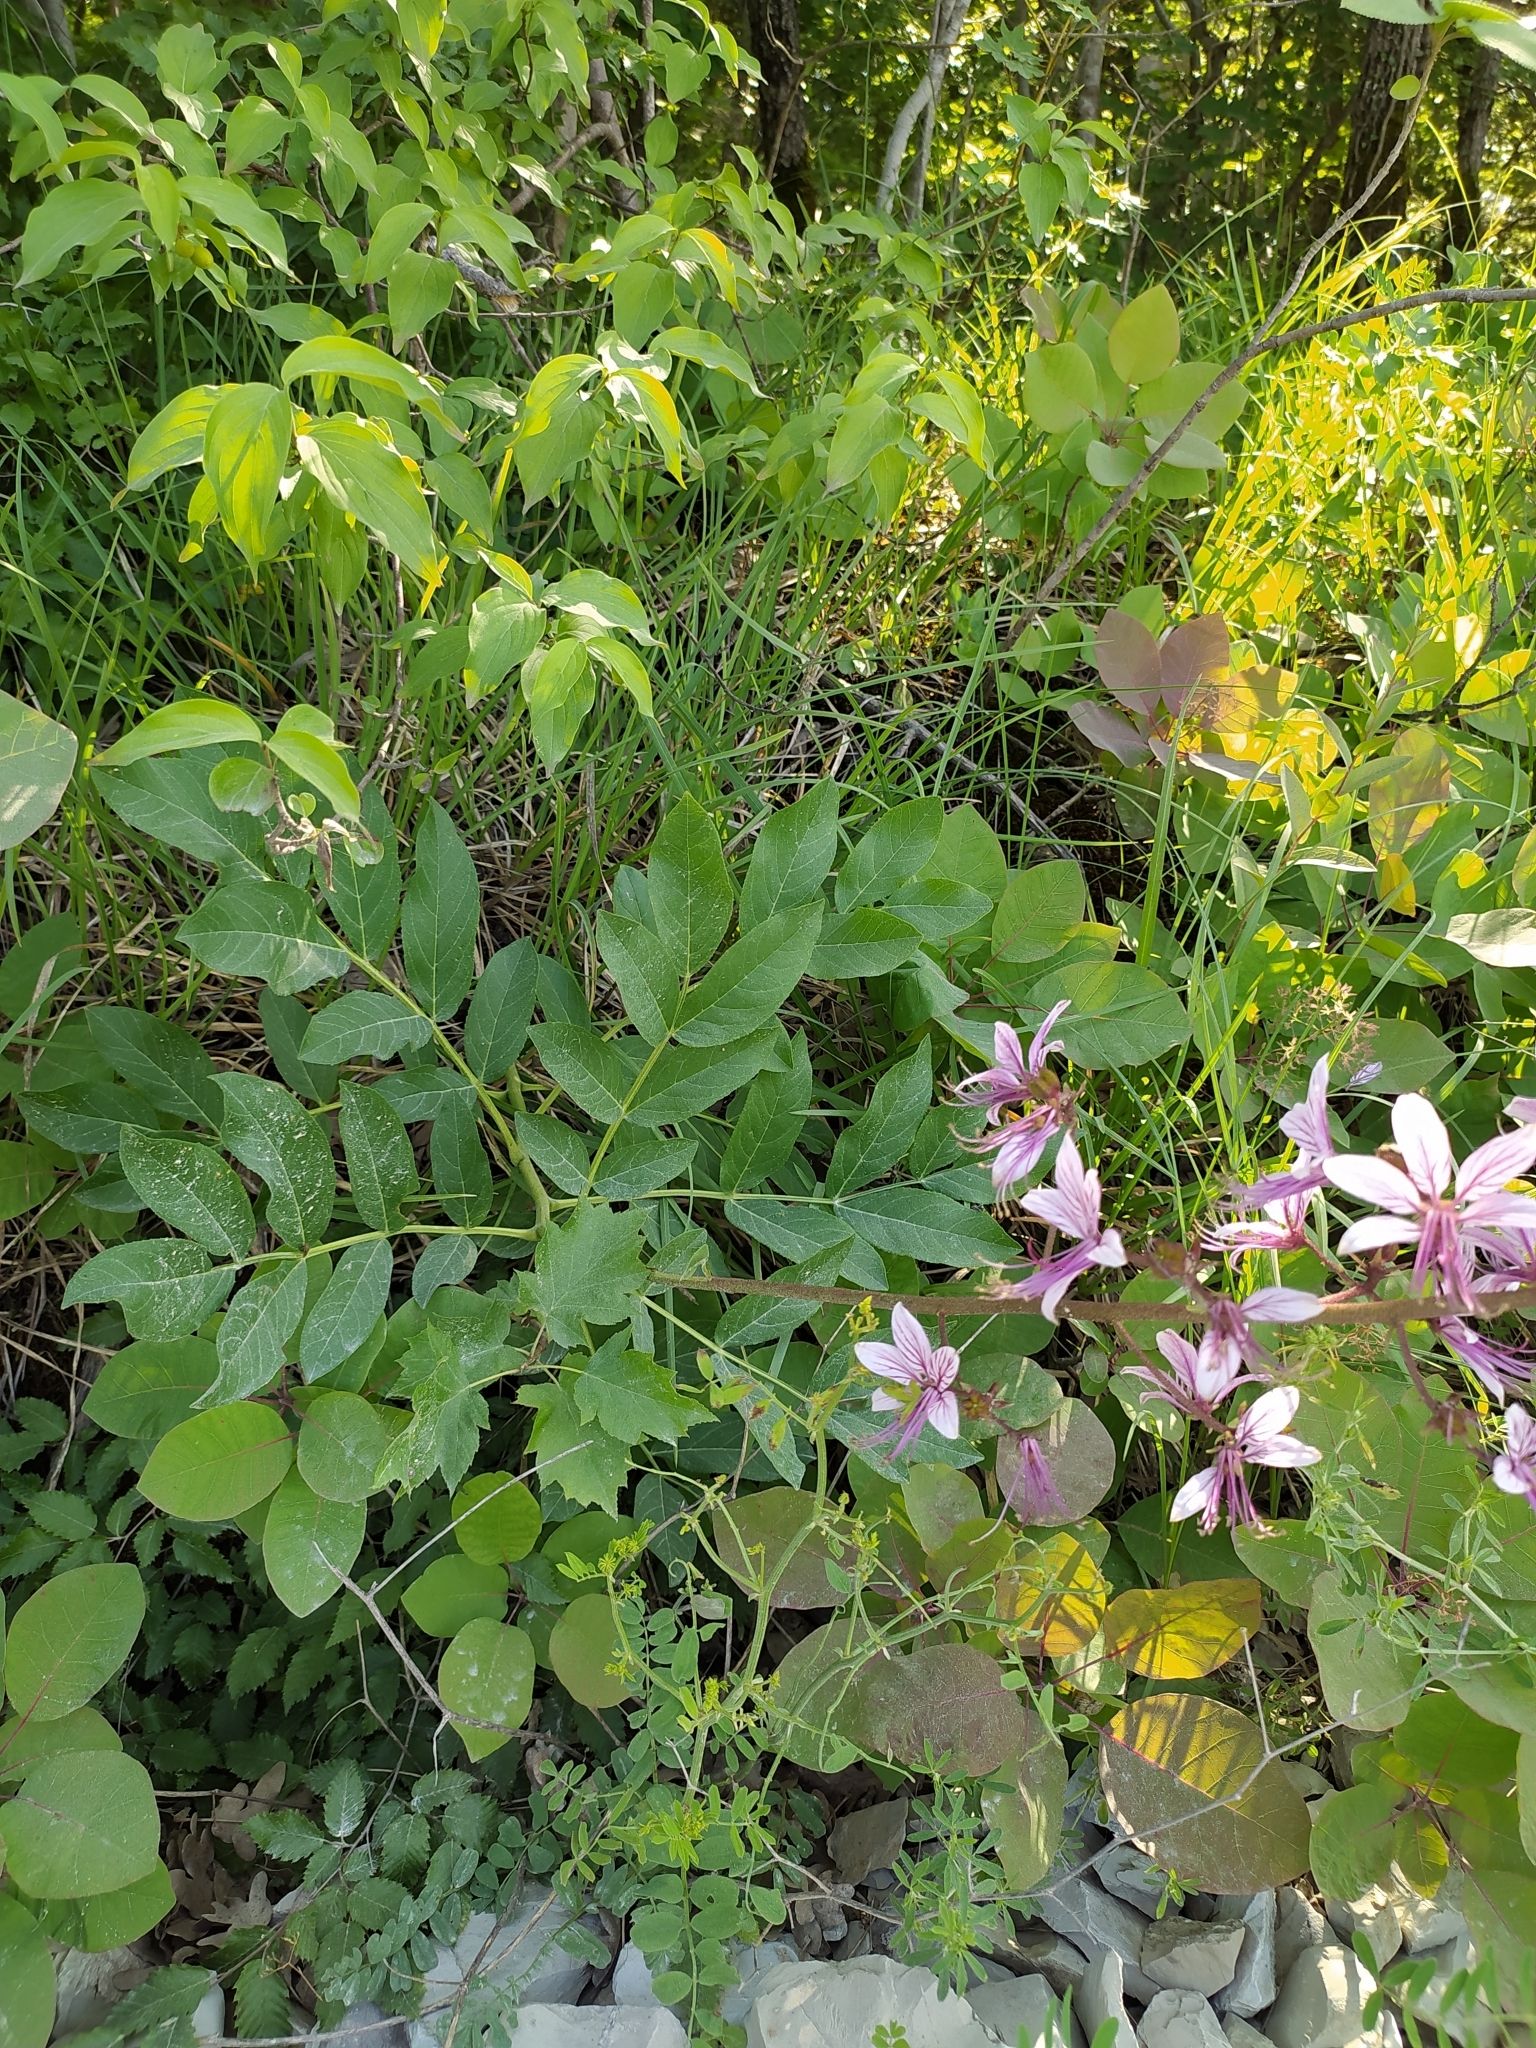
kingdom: Plantae
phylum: Tracheophyta
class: Magnoliopsida
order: Sapindales
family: Rutaceae
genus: Dictamnus
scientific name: Dictamnus albus
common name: Gasplant
